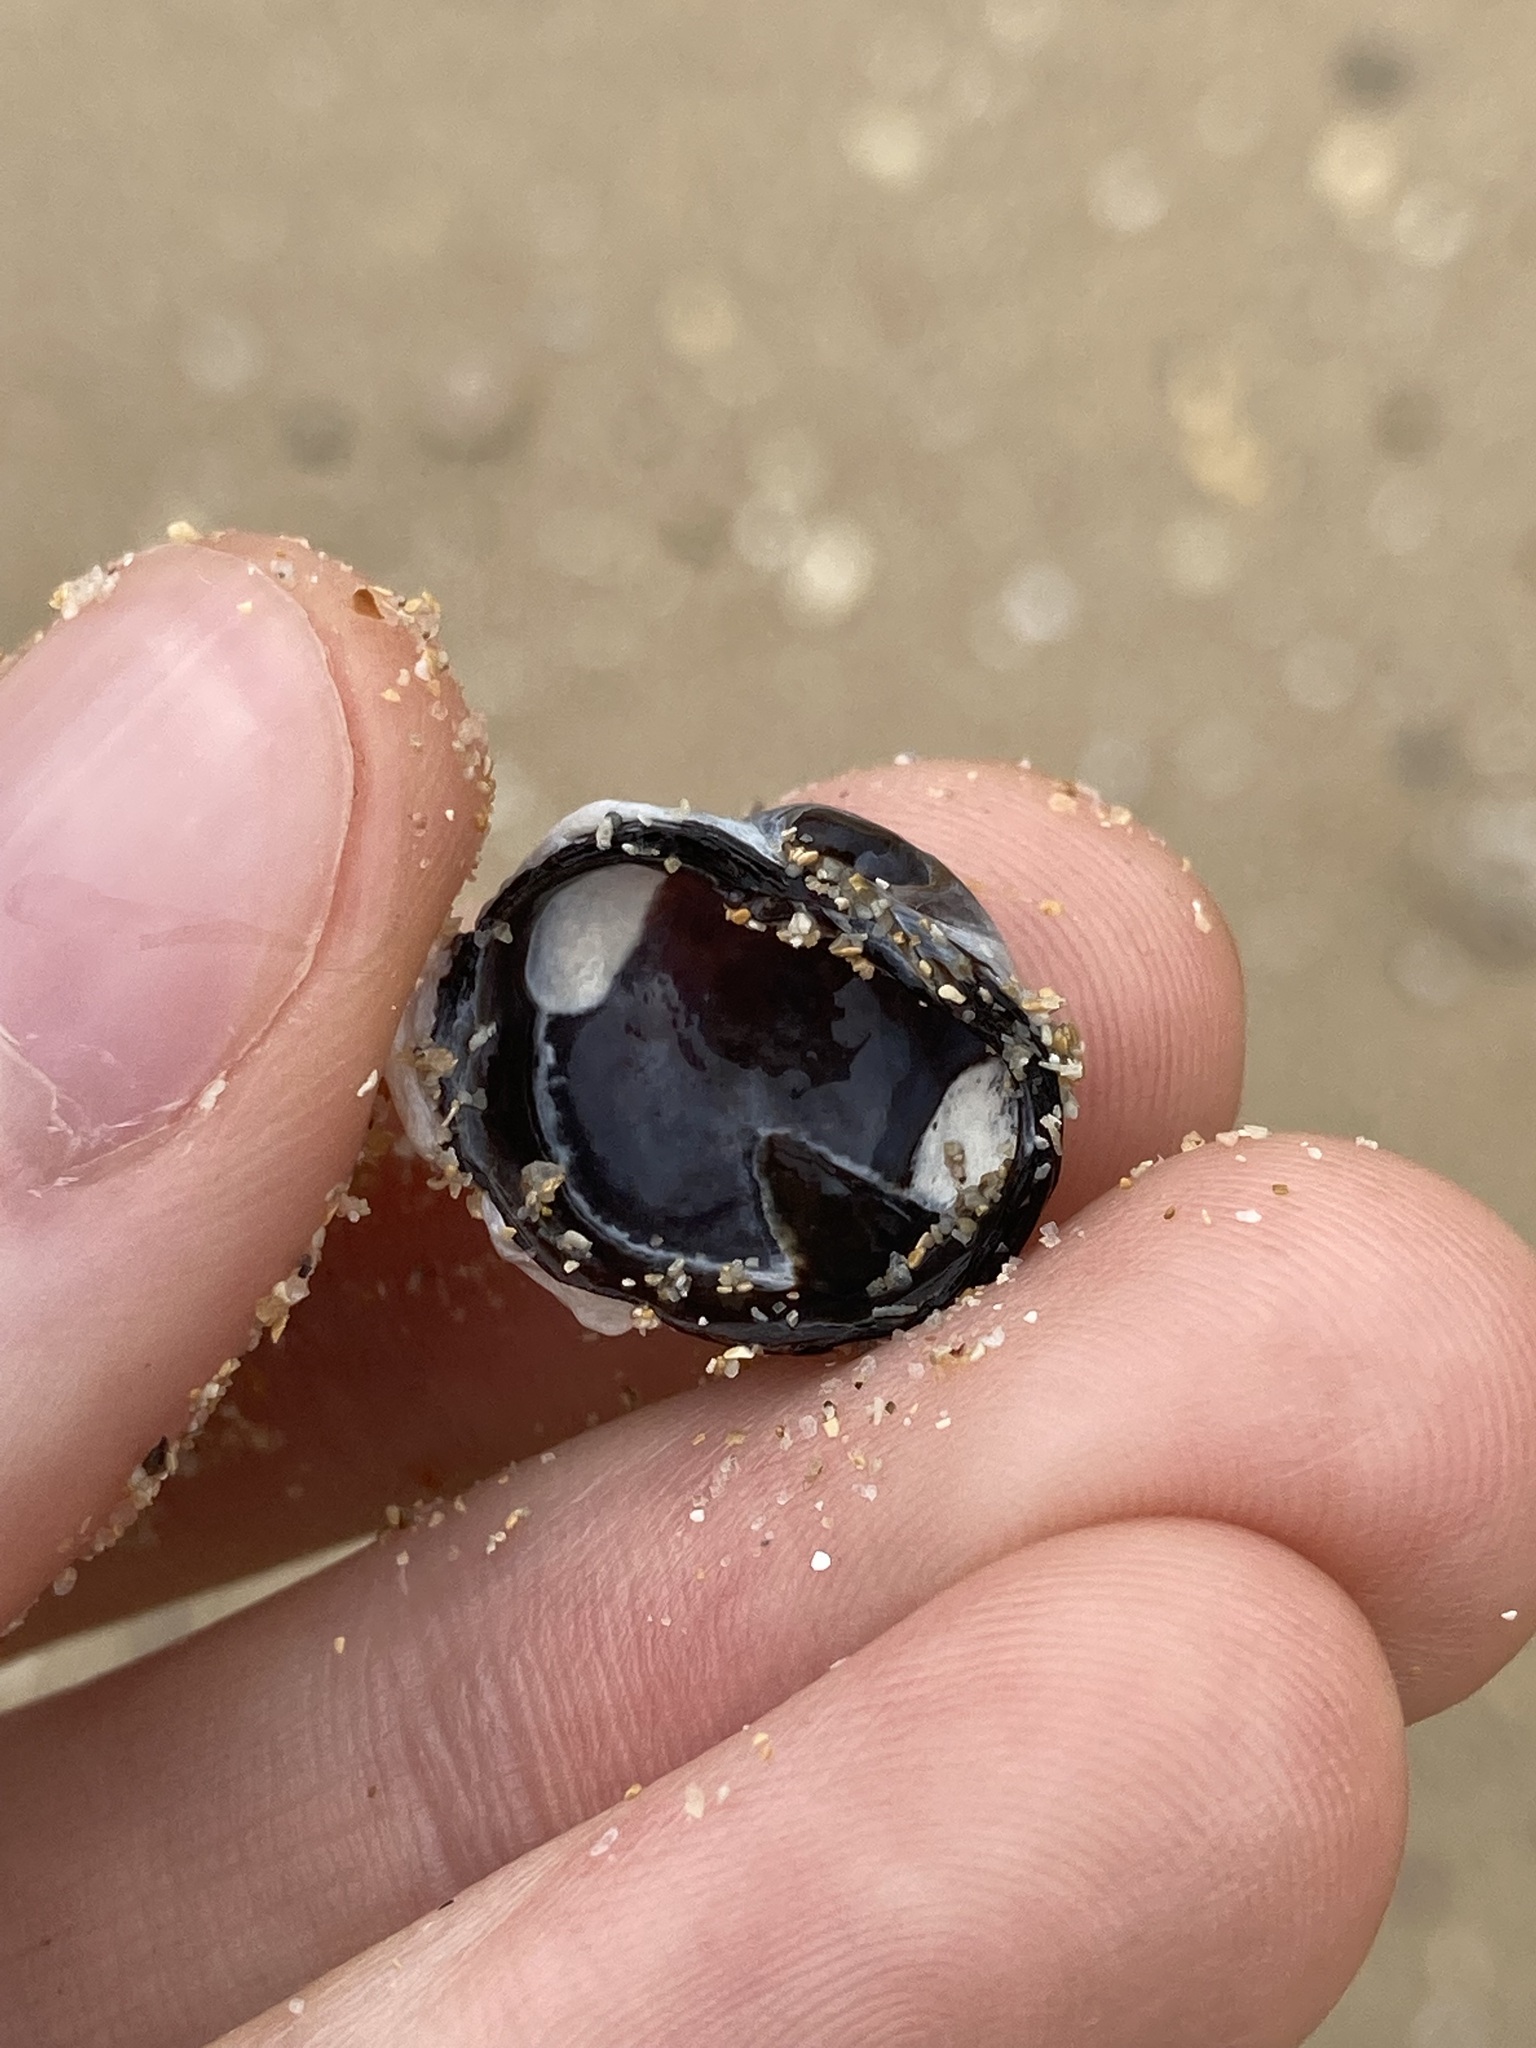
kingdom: Animalia
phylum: Mollusca
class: Bivalvia
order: Venerida
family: Veneridae
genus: Irus
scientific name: Irus cumingii
